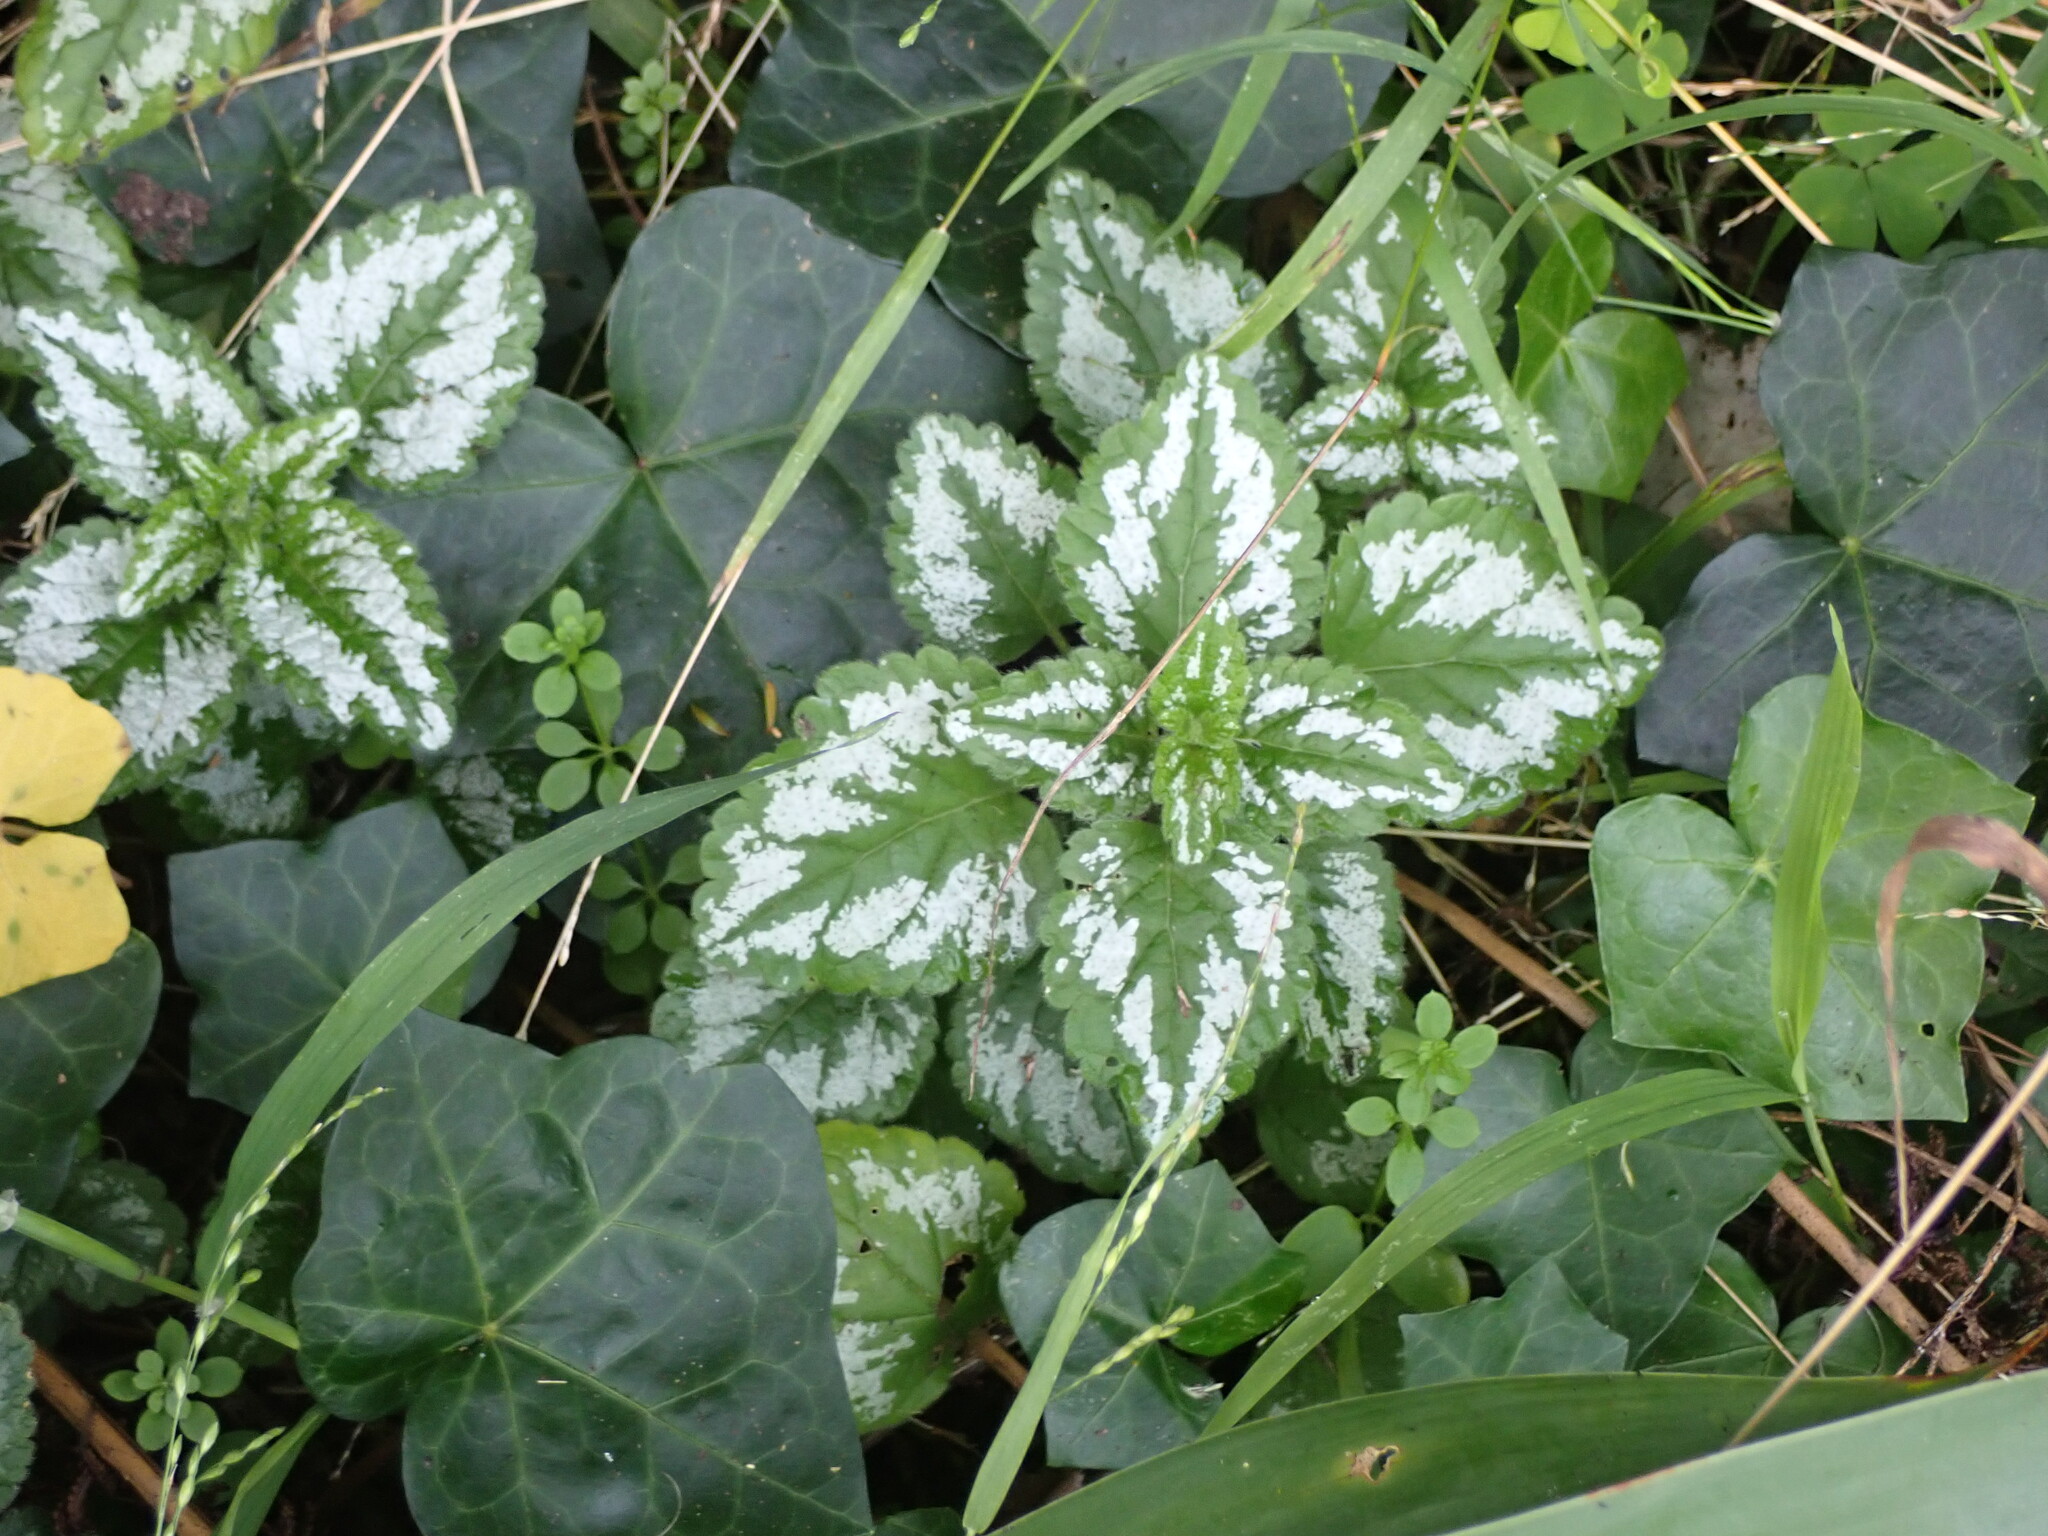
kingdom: Plantae
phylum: Tracheophyta
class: Magnoliopsida
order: Lamiales
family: Lamiaceae
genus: Lamium
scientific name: Lamium galeobdolon
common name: Yellow archangel
